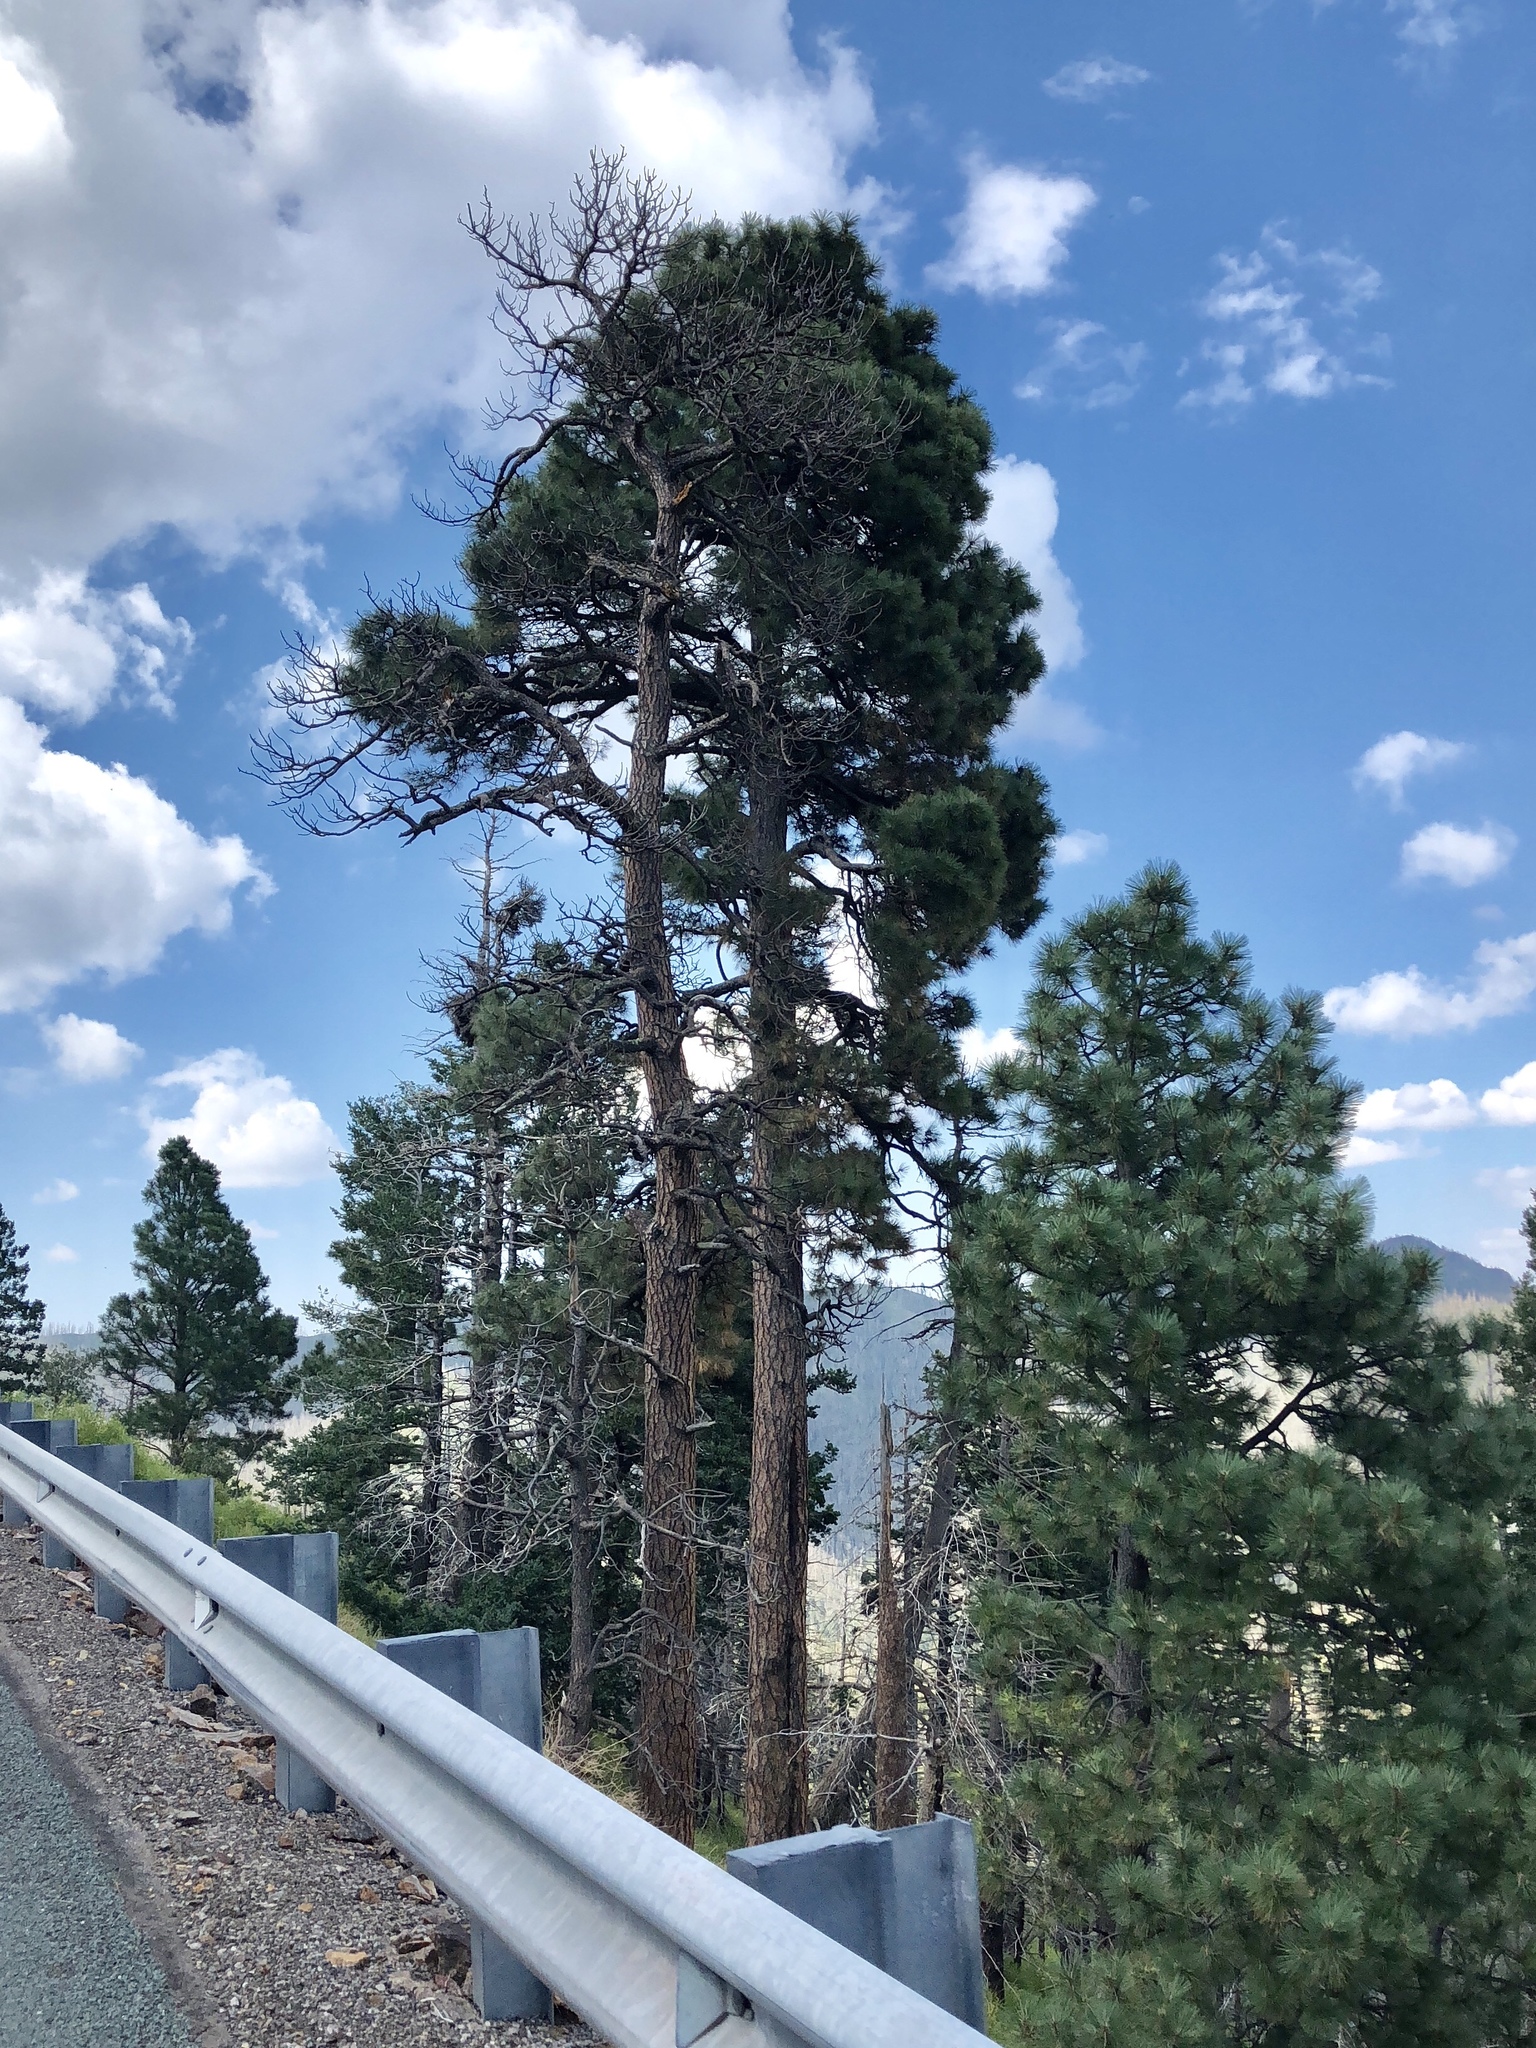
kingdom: Plantae
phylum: Tracheophyta
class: Pinopsida
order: Pinales
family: Pinaceae
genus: Pinus
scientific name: Pinus ponderosa
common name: Western yellow-pine
